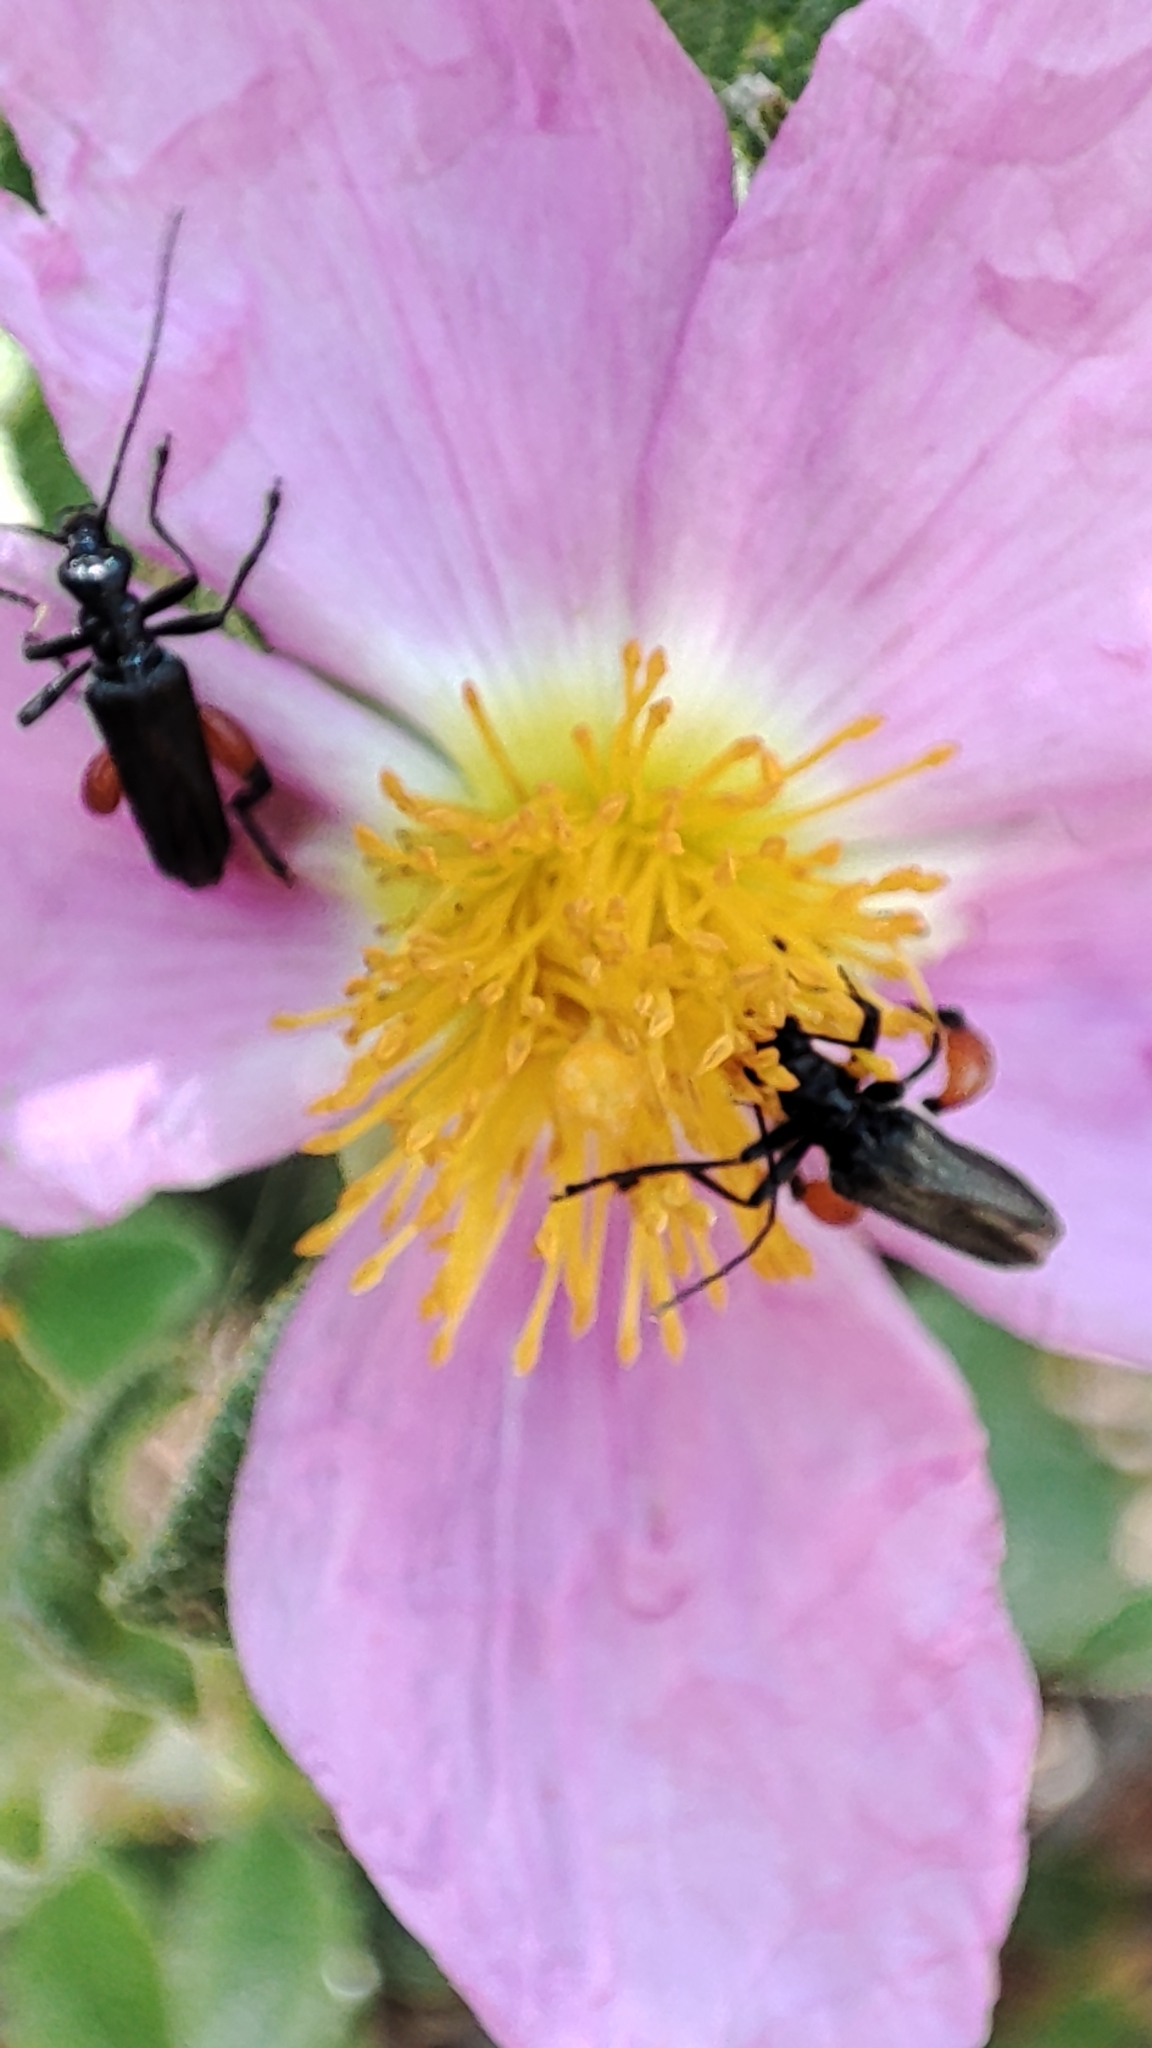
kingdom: Animalia
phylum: Arthropoda
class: Insecta
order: Coleoptera
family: Oedemeridae
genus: Oedemera
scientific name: Oedemera rufofemorata
